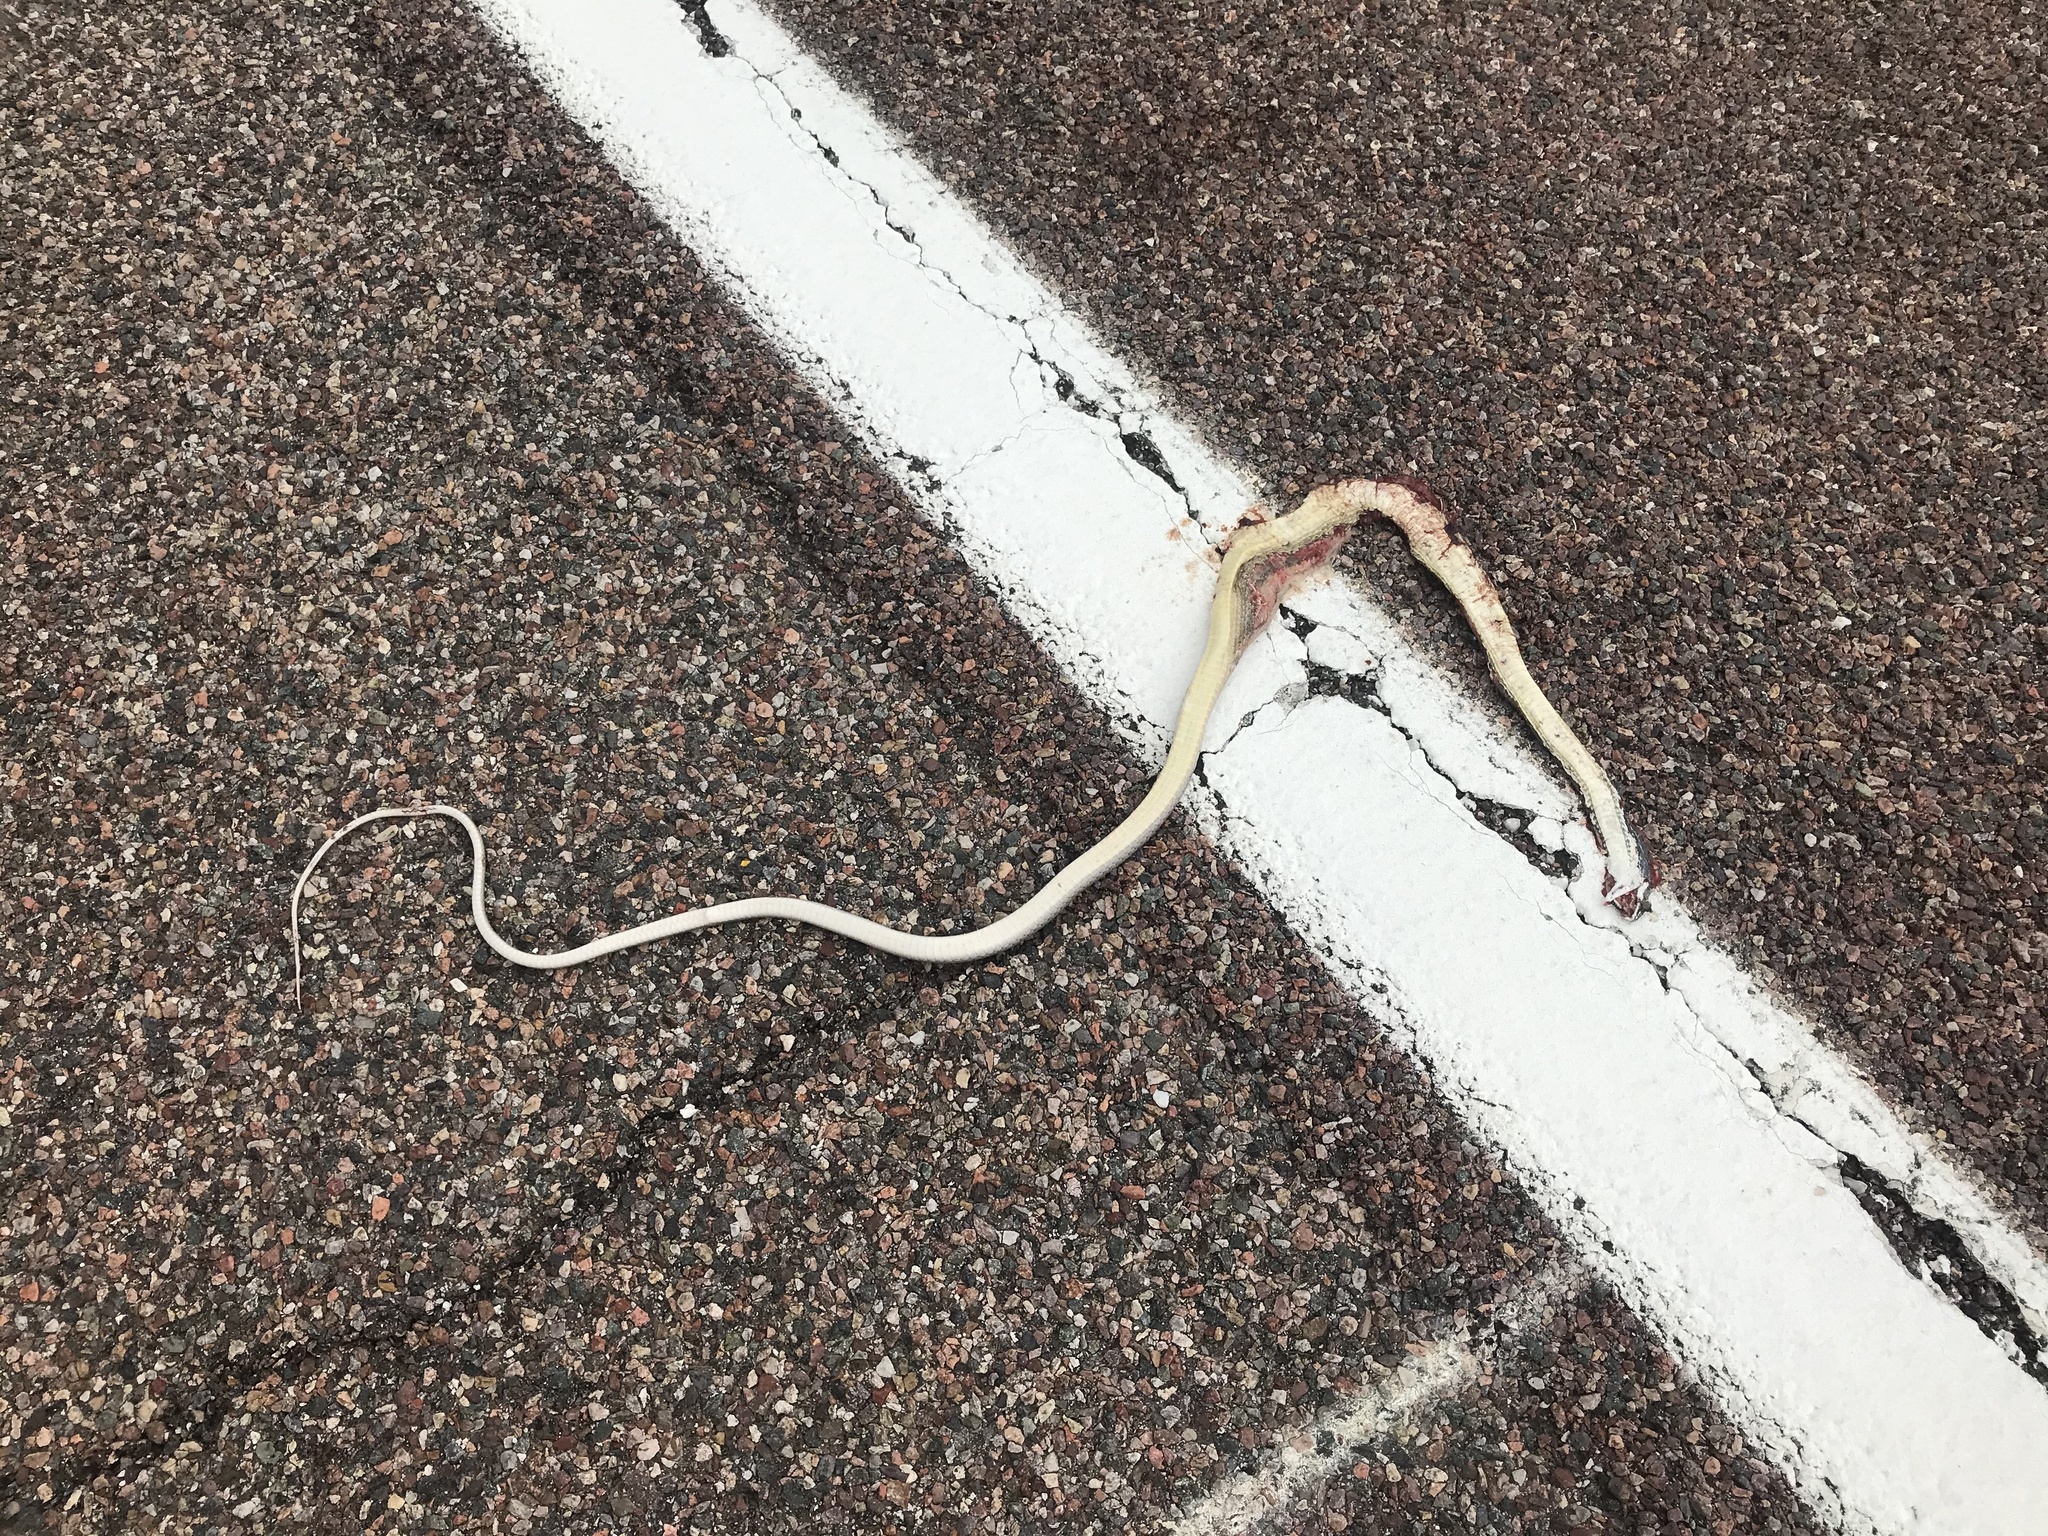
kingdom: Animalia
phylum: Chordata
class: Squamata
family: Colubridae
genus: Masticophis
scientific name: Masticophis bilineatus
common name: Sonoran whipsnake
